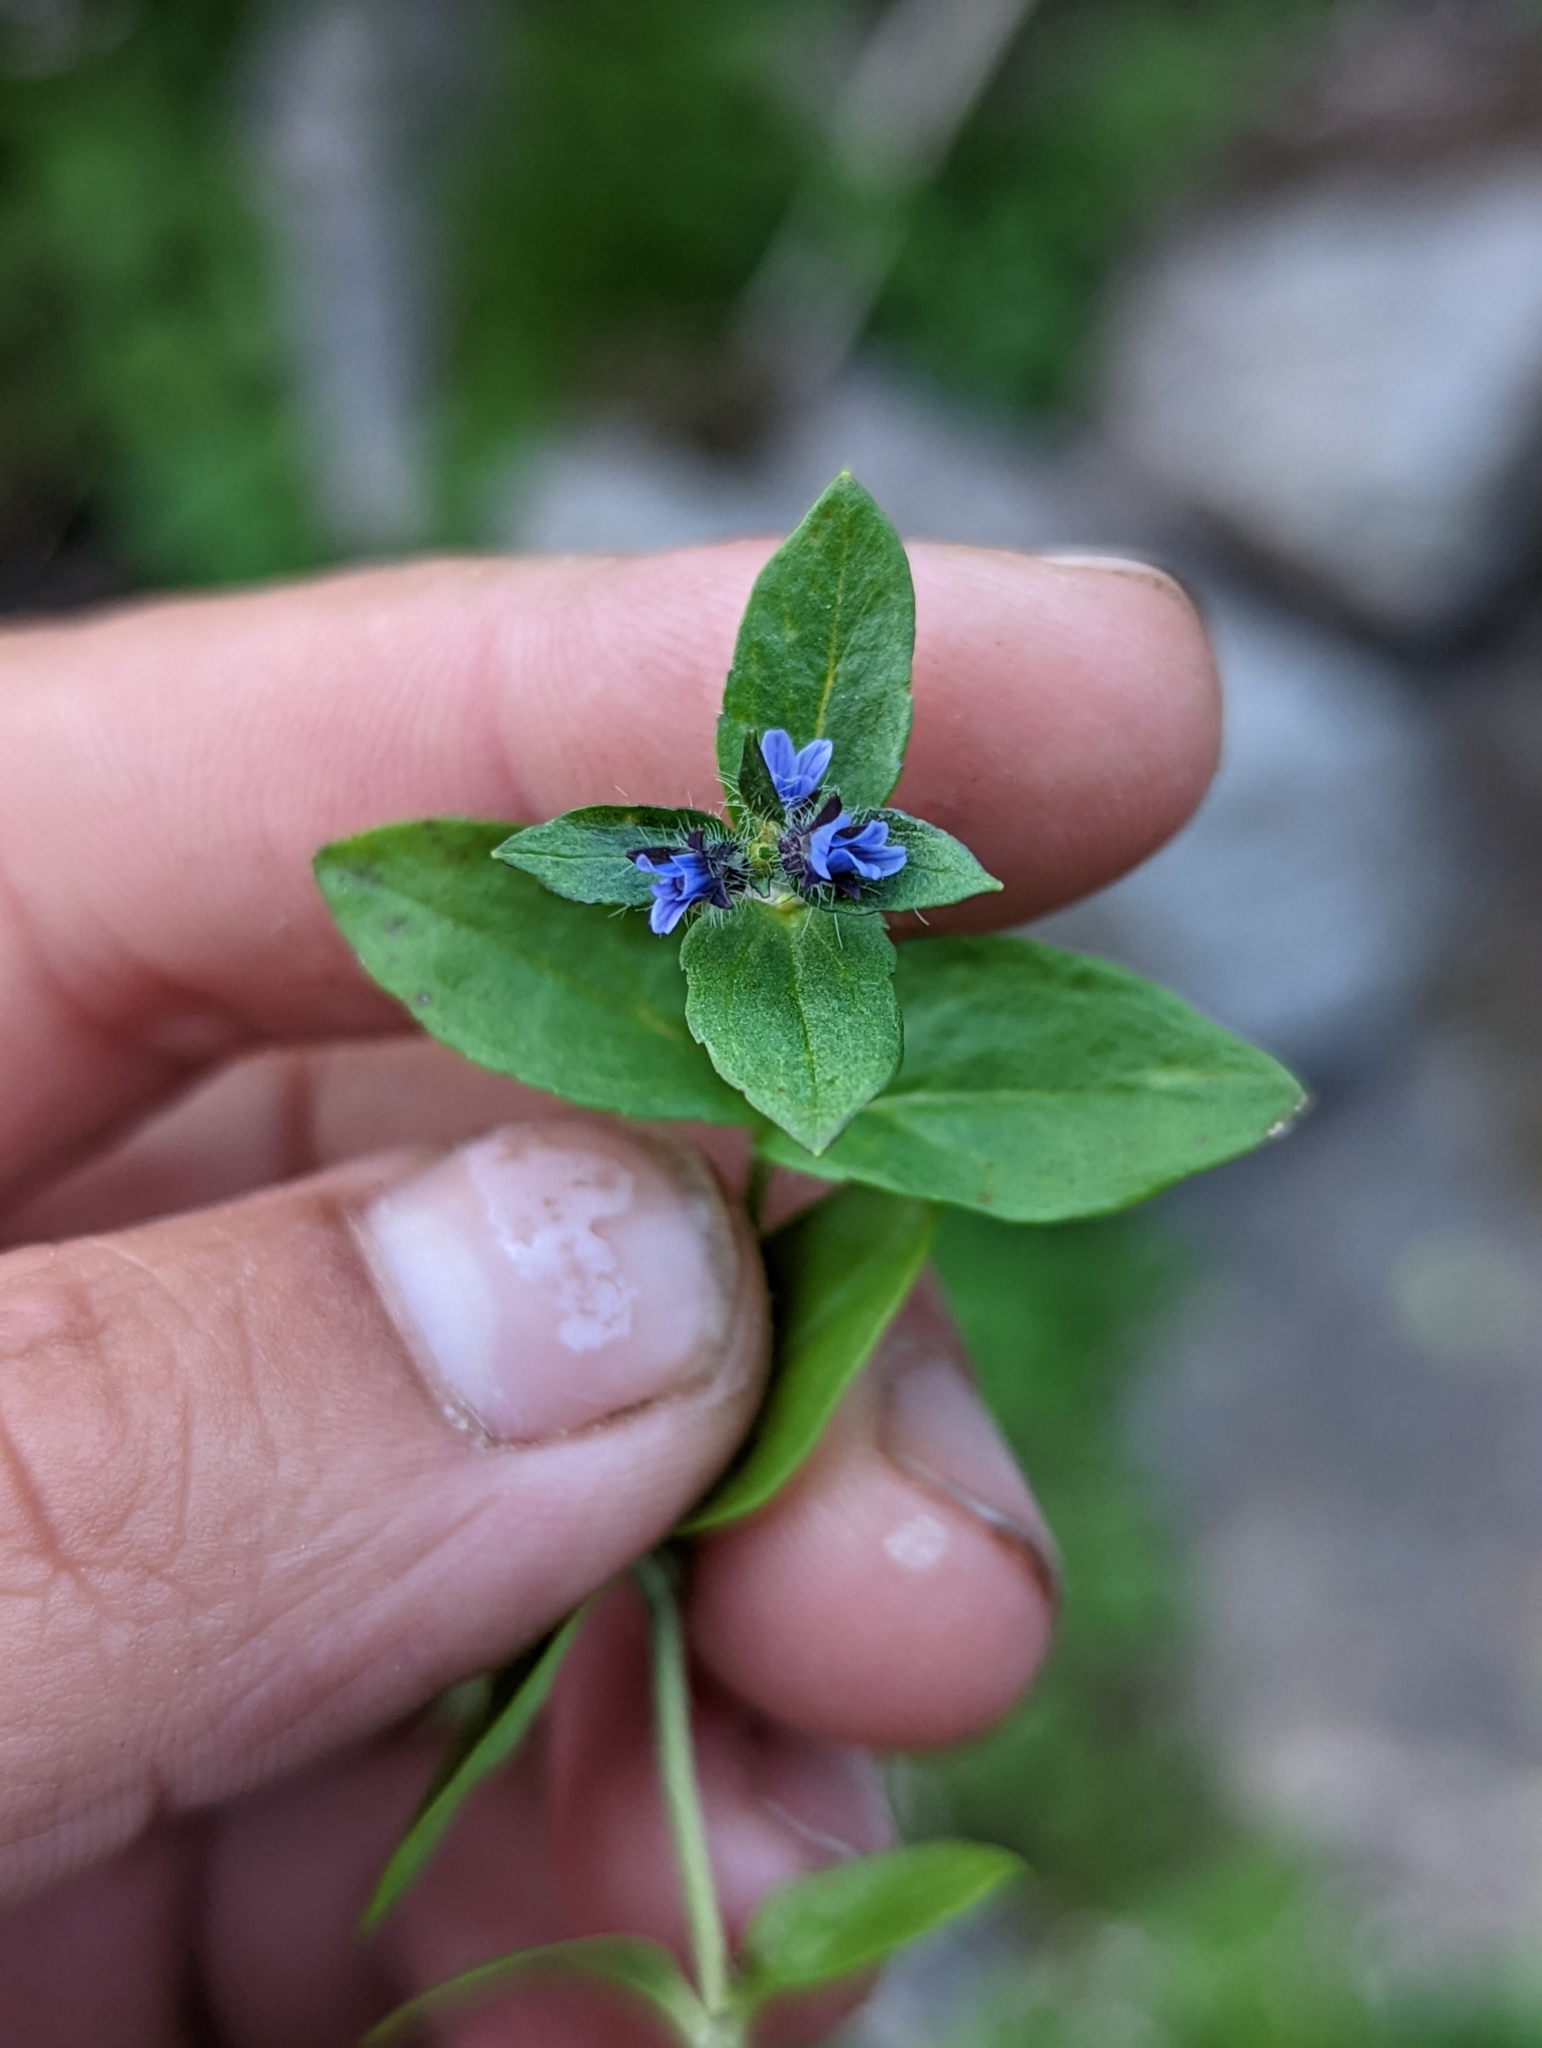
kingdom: Plantae
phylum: Tracheophyta
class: Magnoliopsida
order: Lamiales
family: Plantaginaceae
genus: Veronica
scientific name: Veronica wormskjoldii
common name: American alpine speedwell
